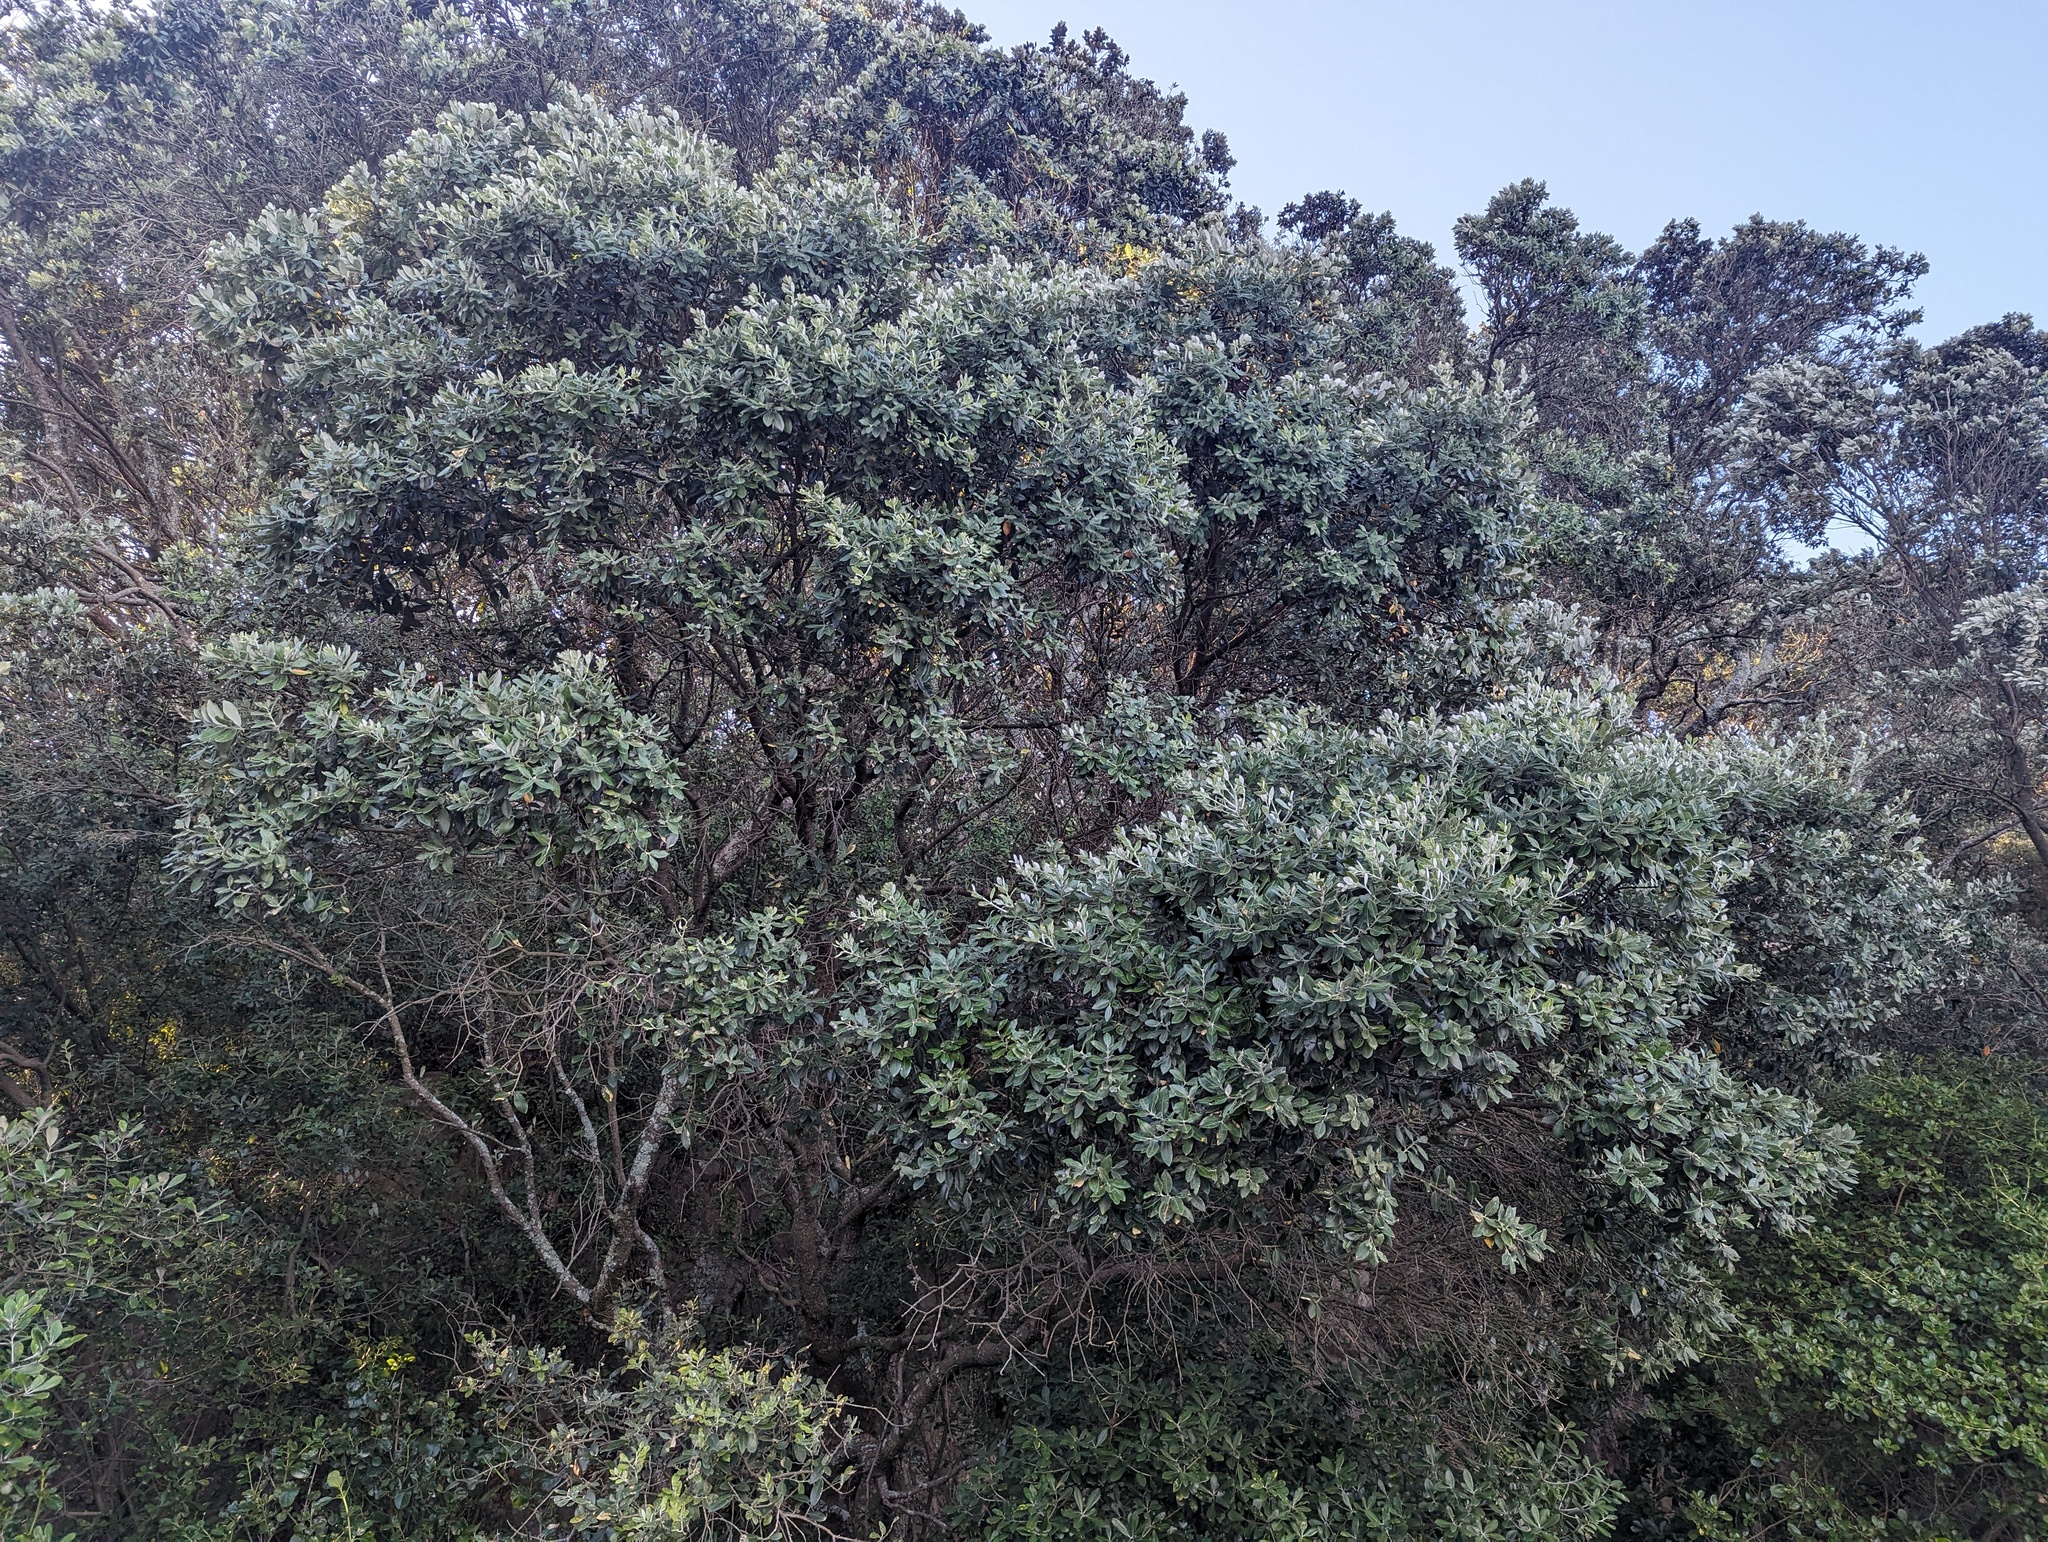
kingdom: Plantae
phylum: Tracheophyta
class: Magnoliopsida
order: Myrtales
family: Myrtaceae
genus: Metrosideros
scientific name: Metrosideros excelsa
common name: New zealand christmastree
